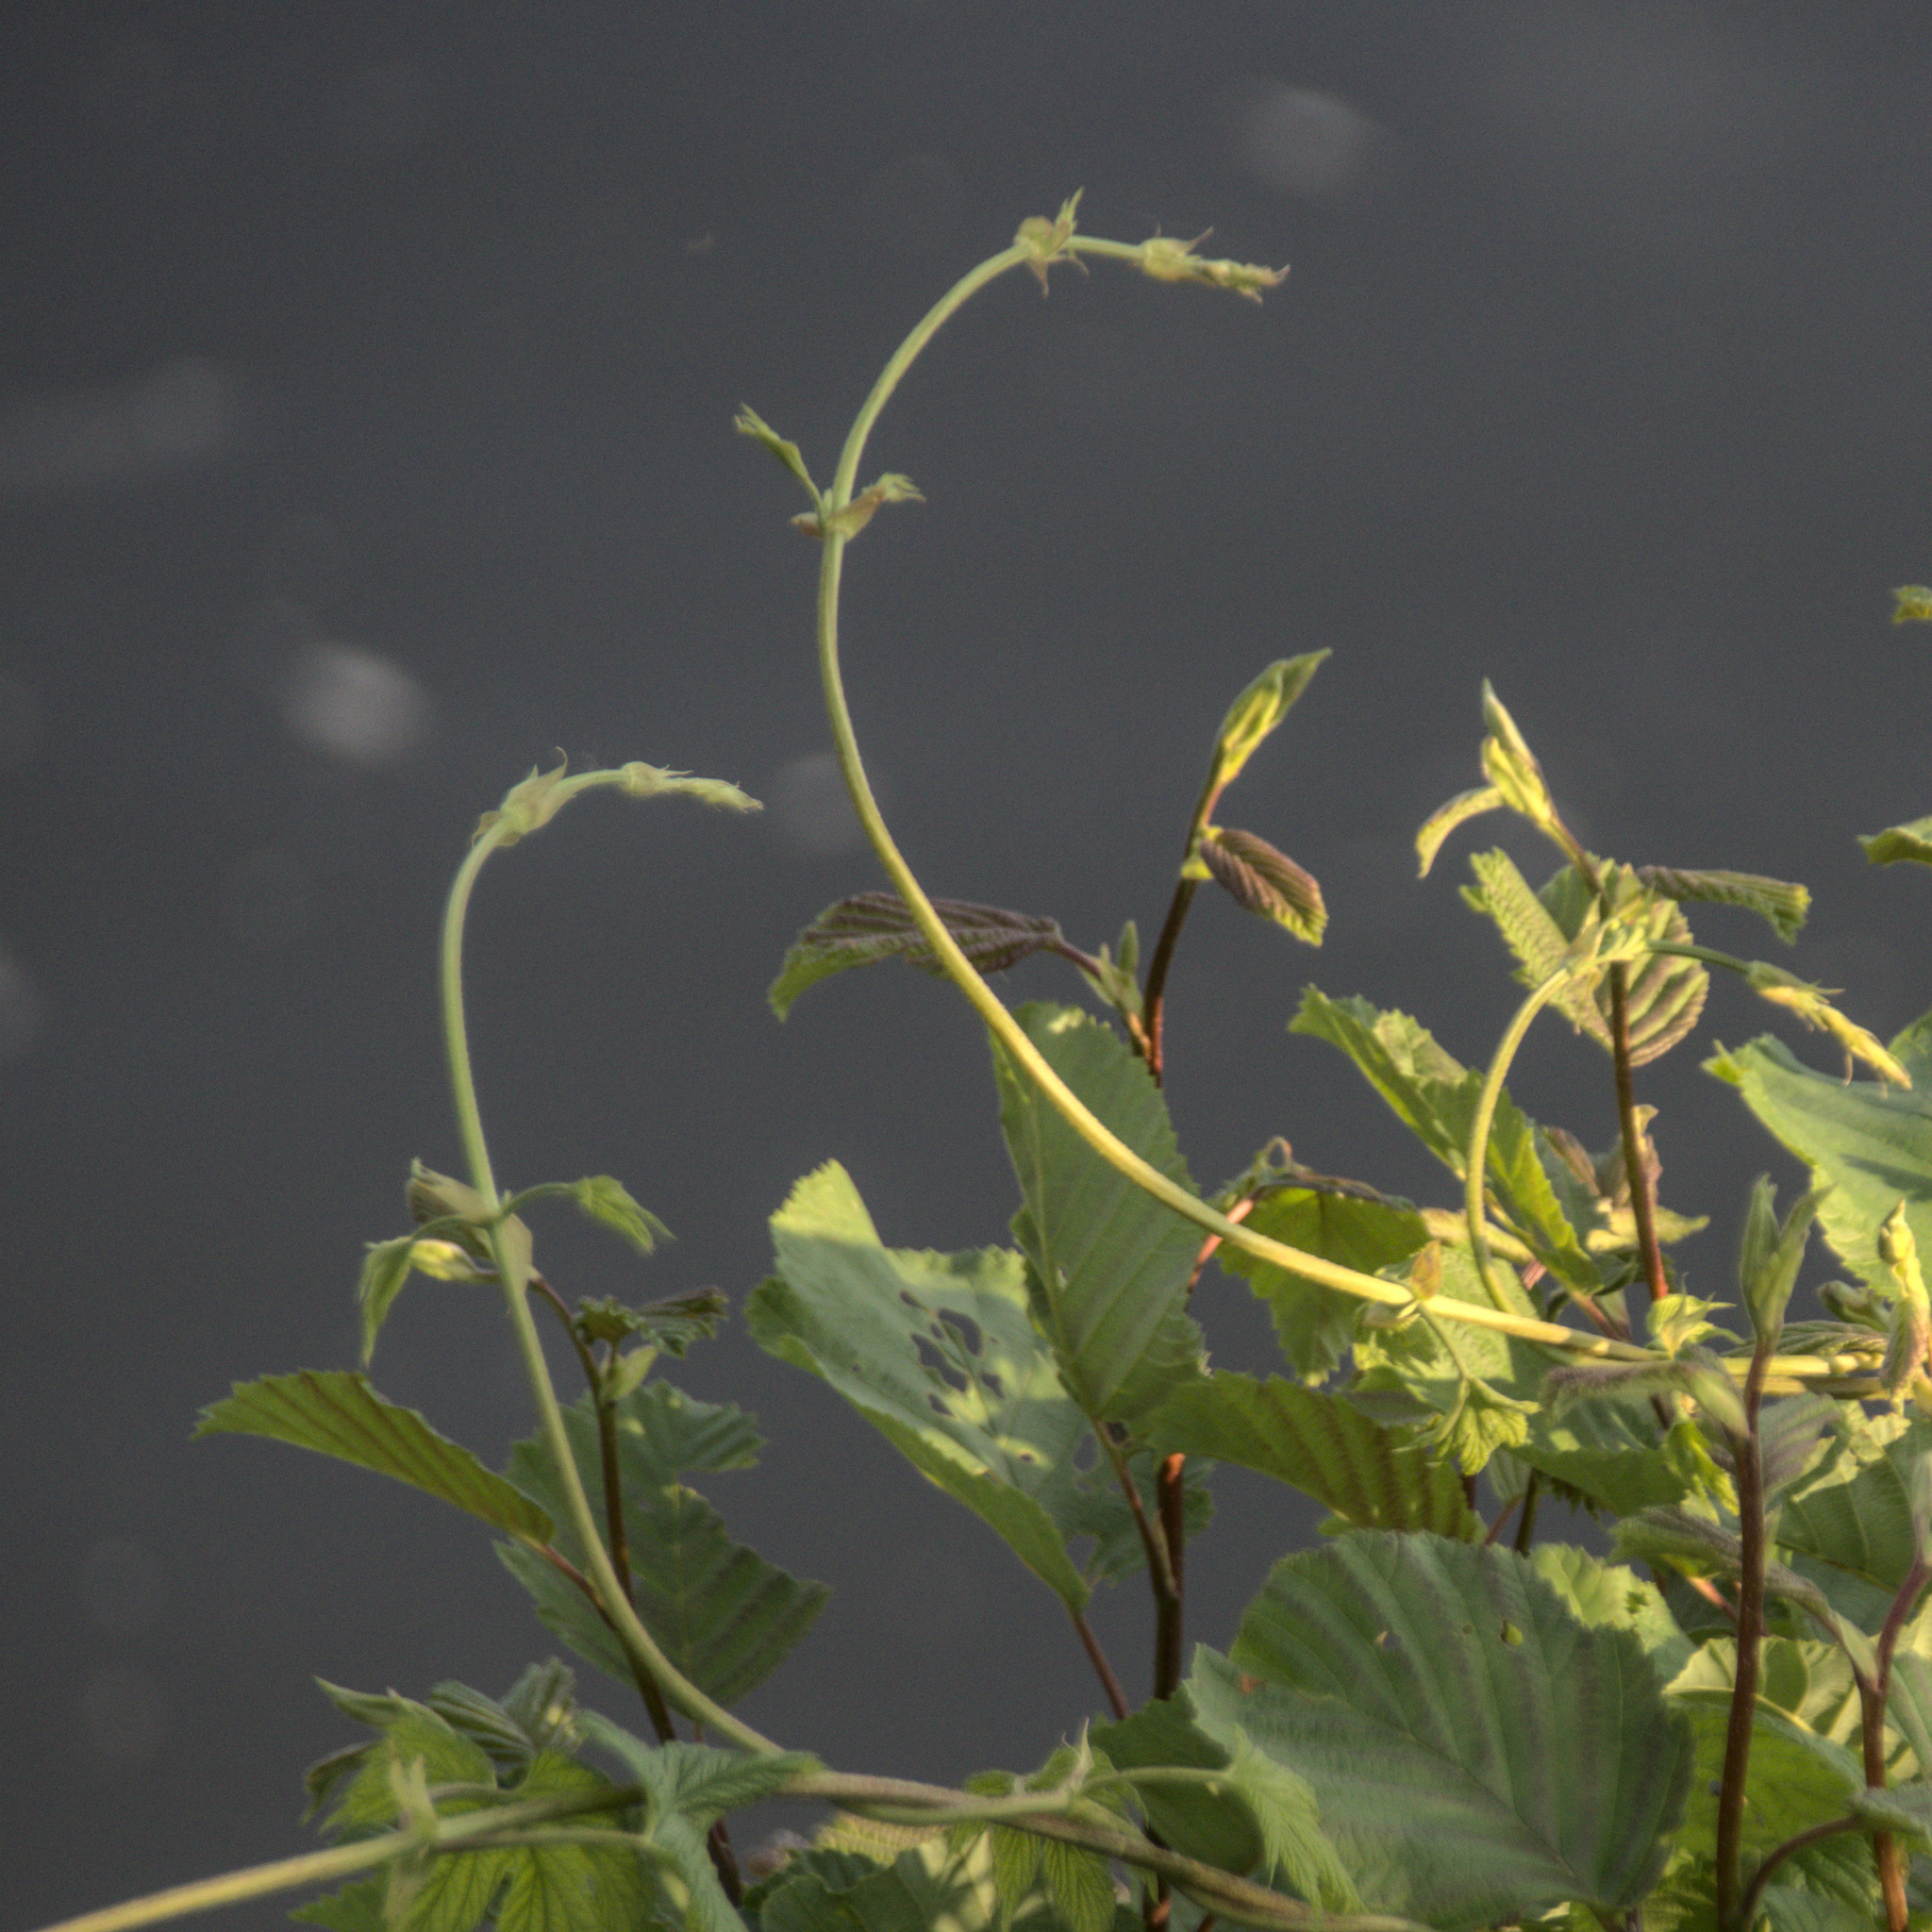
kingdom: Plantae
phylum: Tracheophyta
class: Magnoliopsida
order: Rosales
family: Cannabaceae
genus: Humulus
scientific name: Humulus lupulus
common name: Hop
